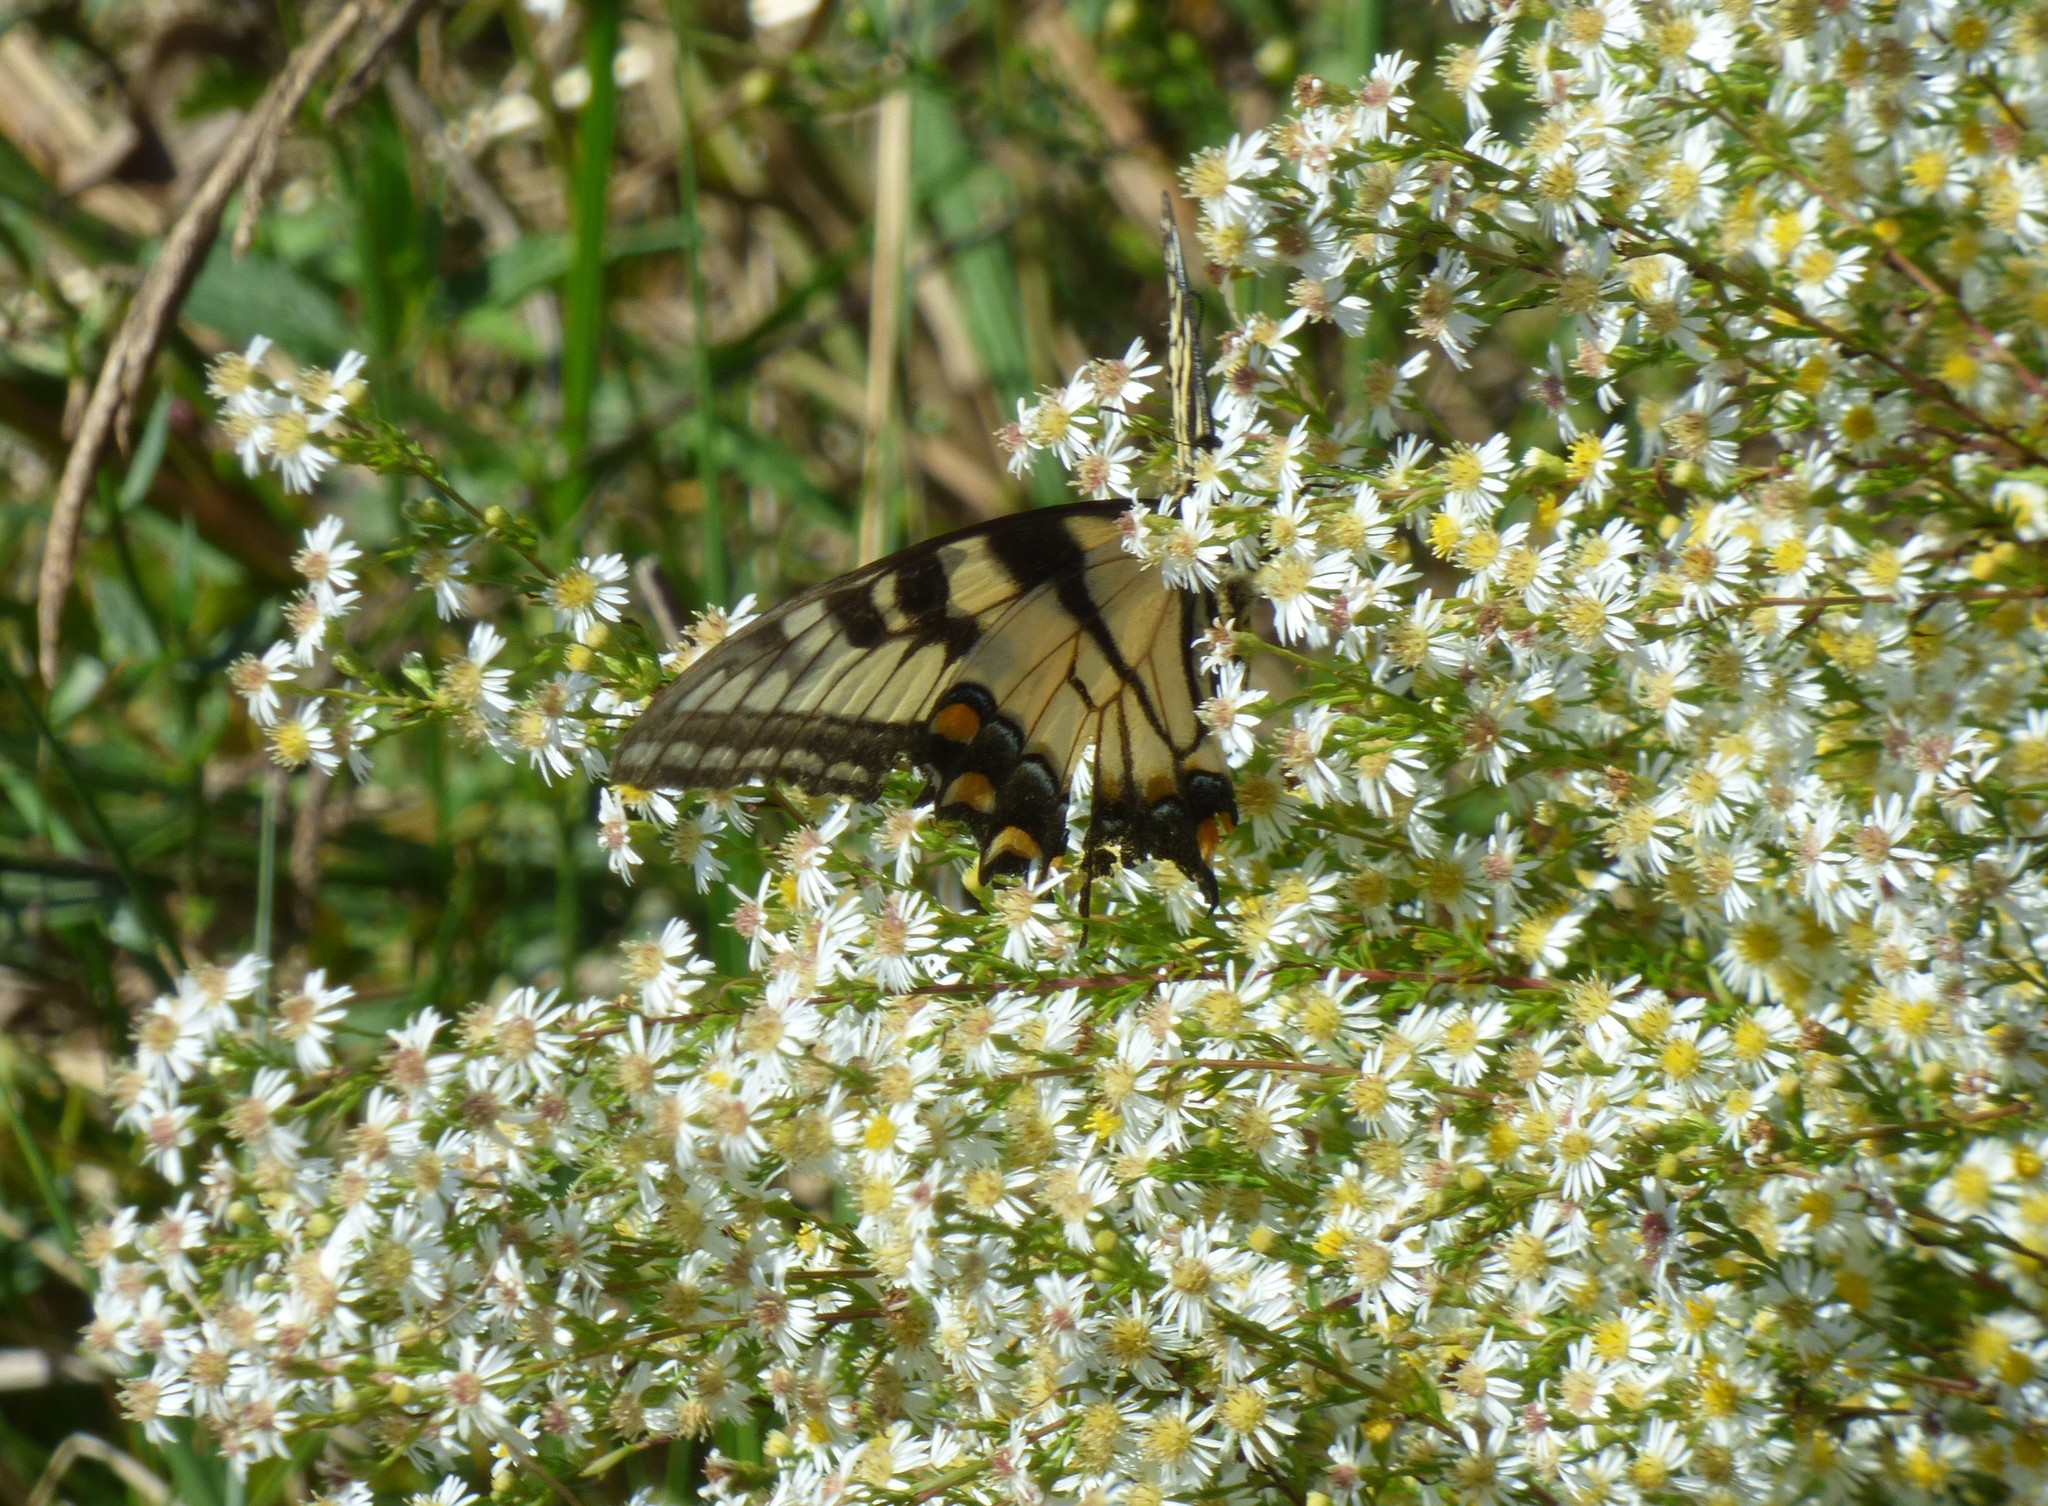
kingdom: Animalia
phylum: Arthropoda
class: Insecta
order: Lepidoptera
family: Papilionidae
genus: Papilio
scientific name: Papilio glaucus
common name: Tiger swallowtail
